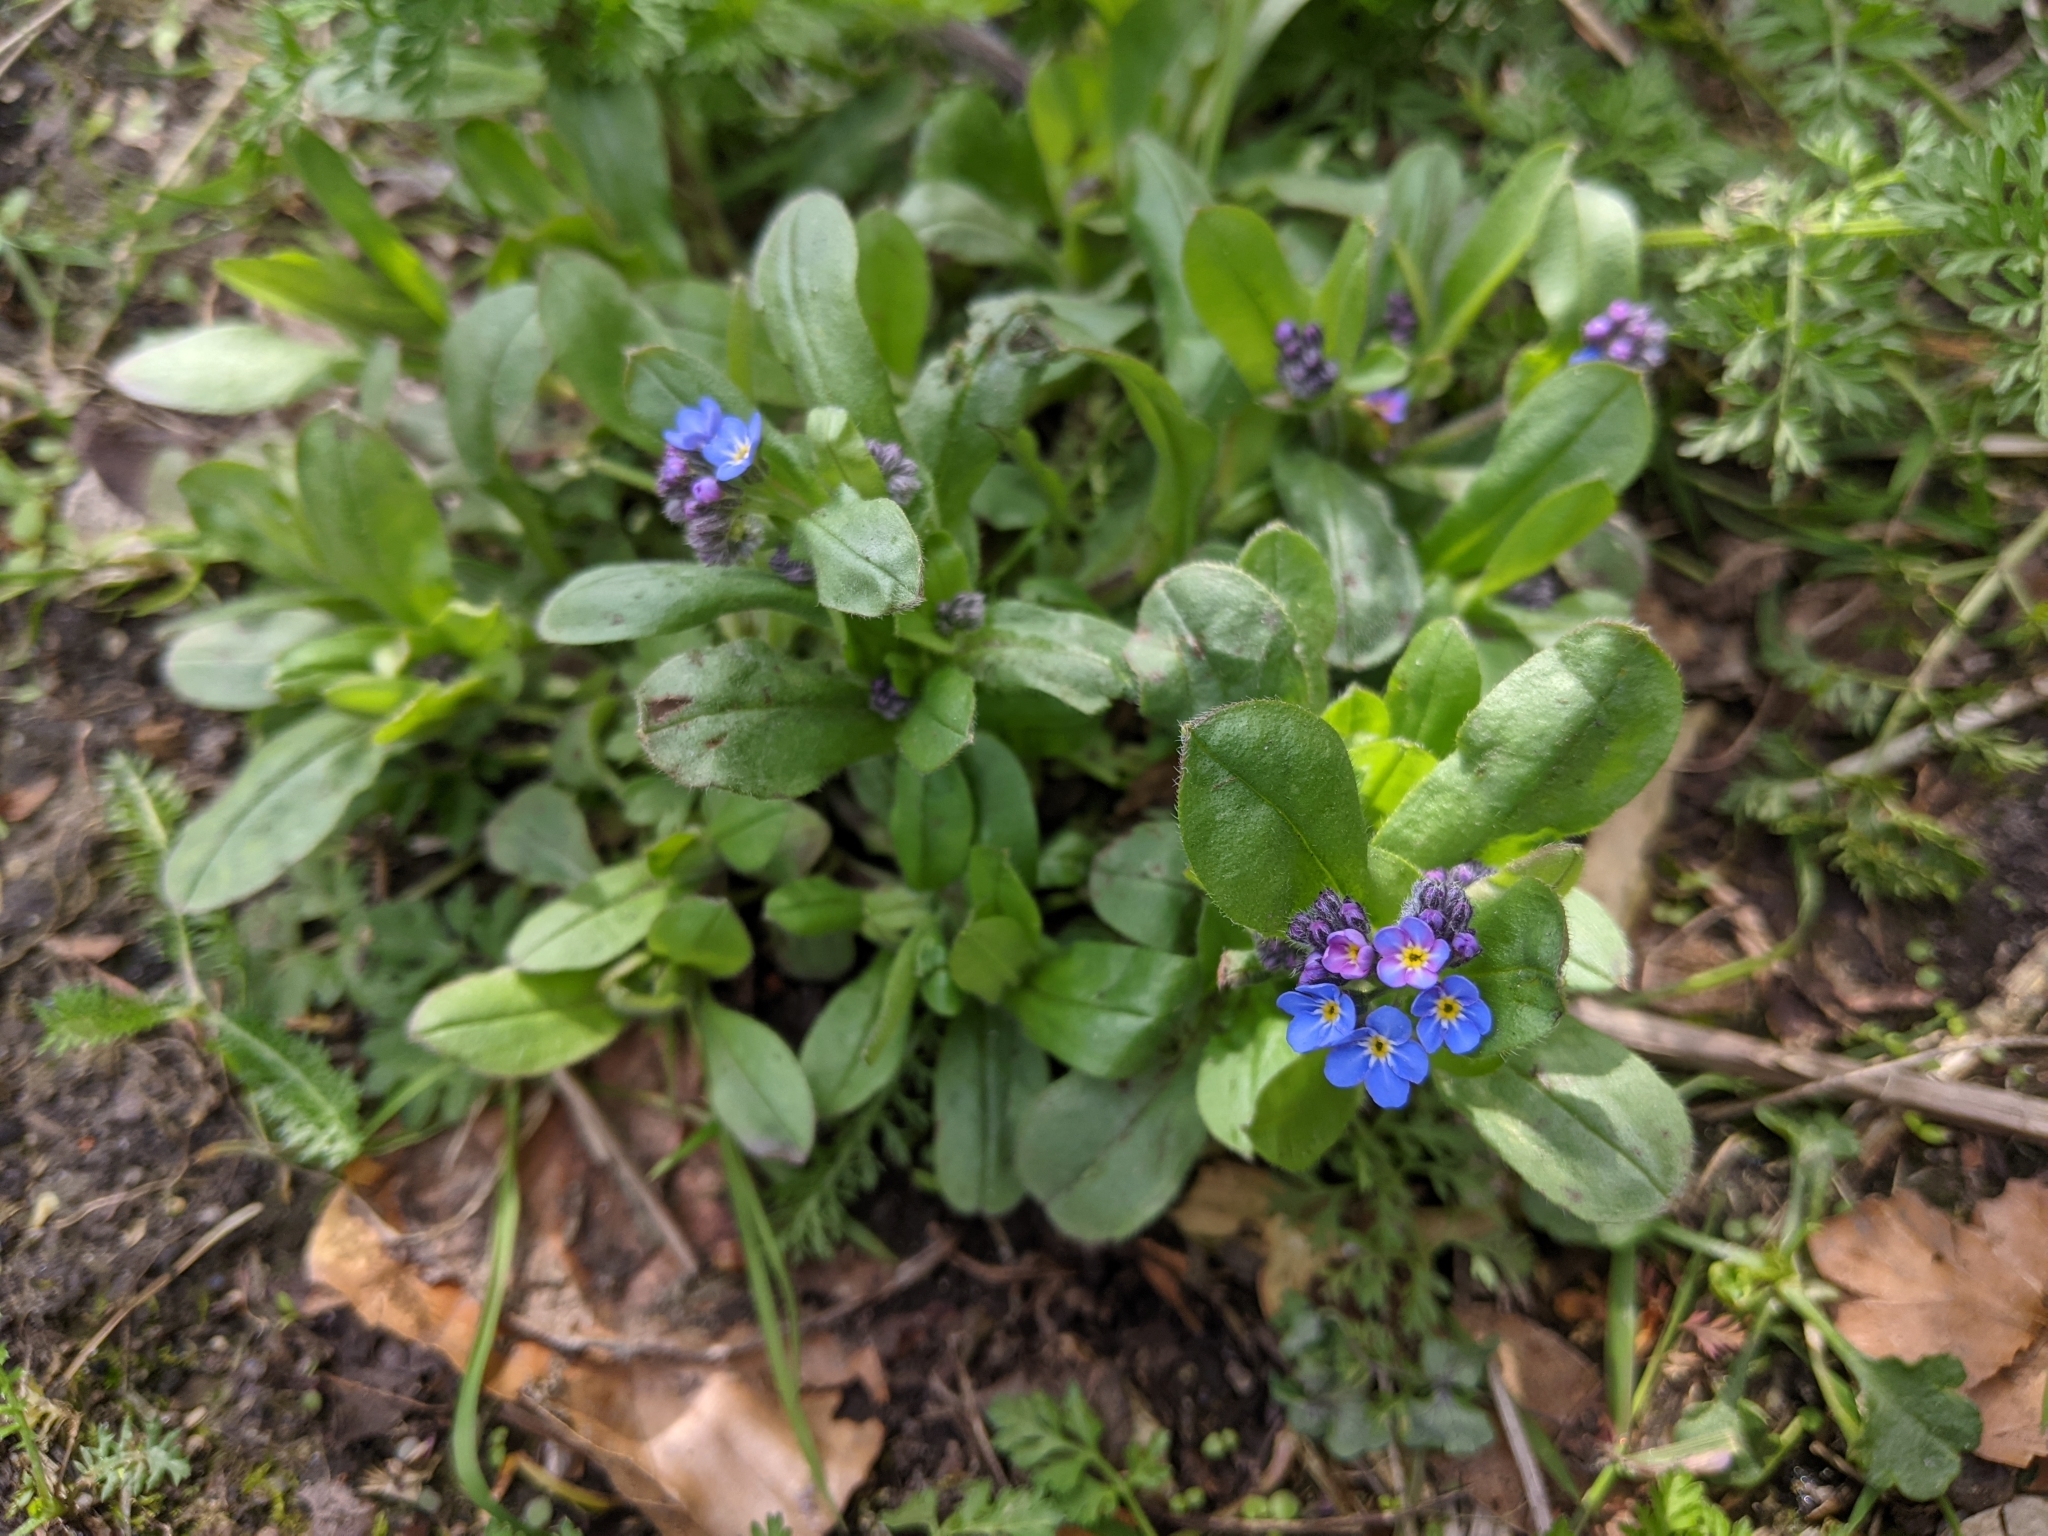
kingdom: Plantae
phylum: Tracheophyta
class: Magnoliopsida
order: Boraginales
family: Boraginaceae
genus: Myosotis
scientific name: Myosotis sylvatica
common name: Wood forget-me-not
